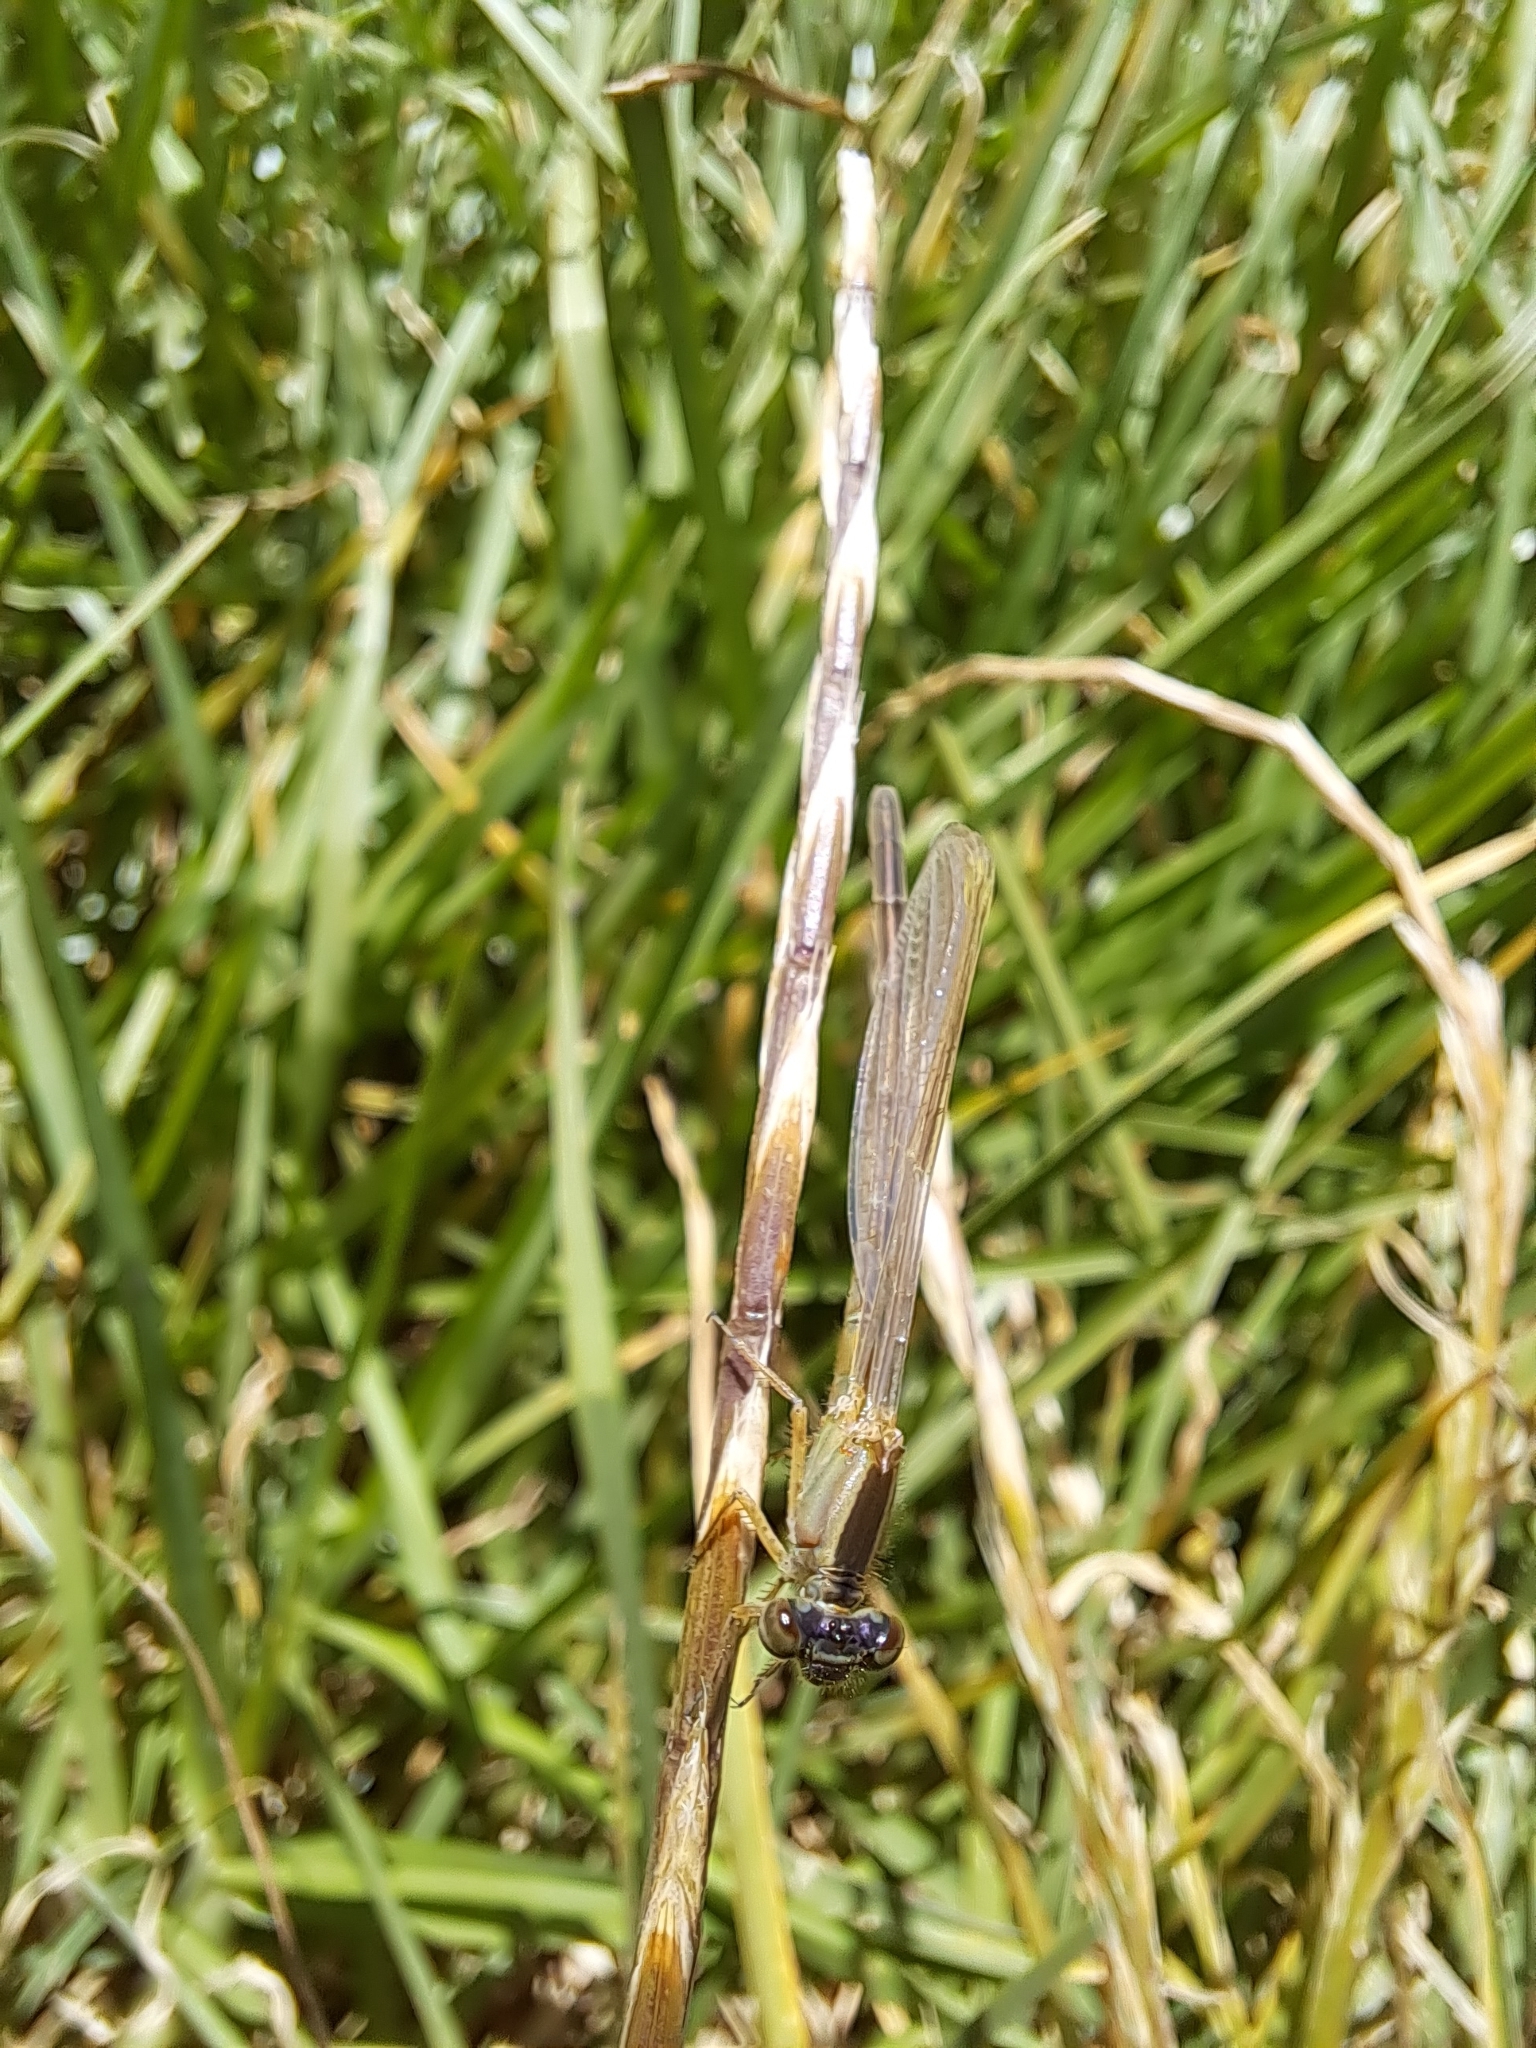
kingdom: Animalia
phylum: Arthropoda
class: Insecta
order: Odonata
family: Coenagrionidae
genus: Ischnura
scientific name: Ischnura senegalensis
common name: Tropical bluetail
